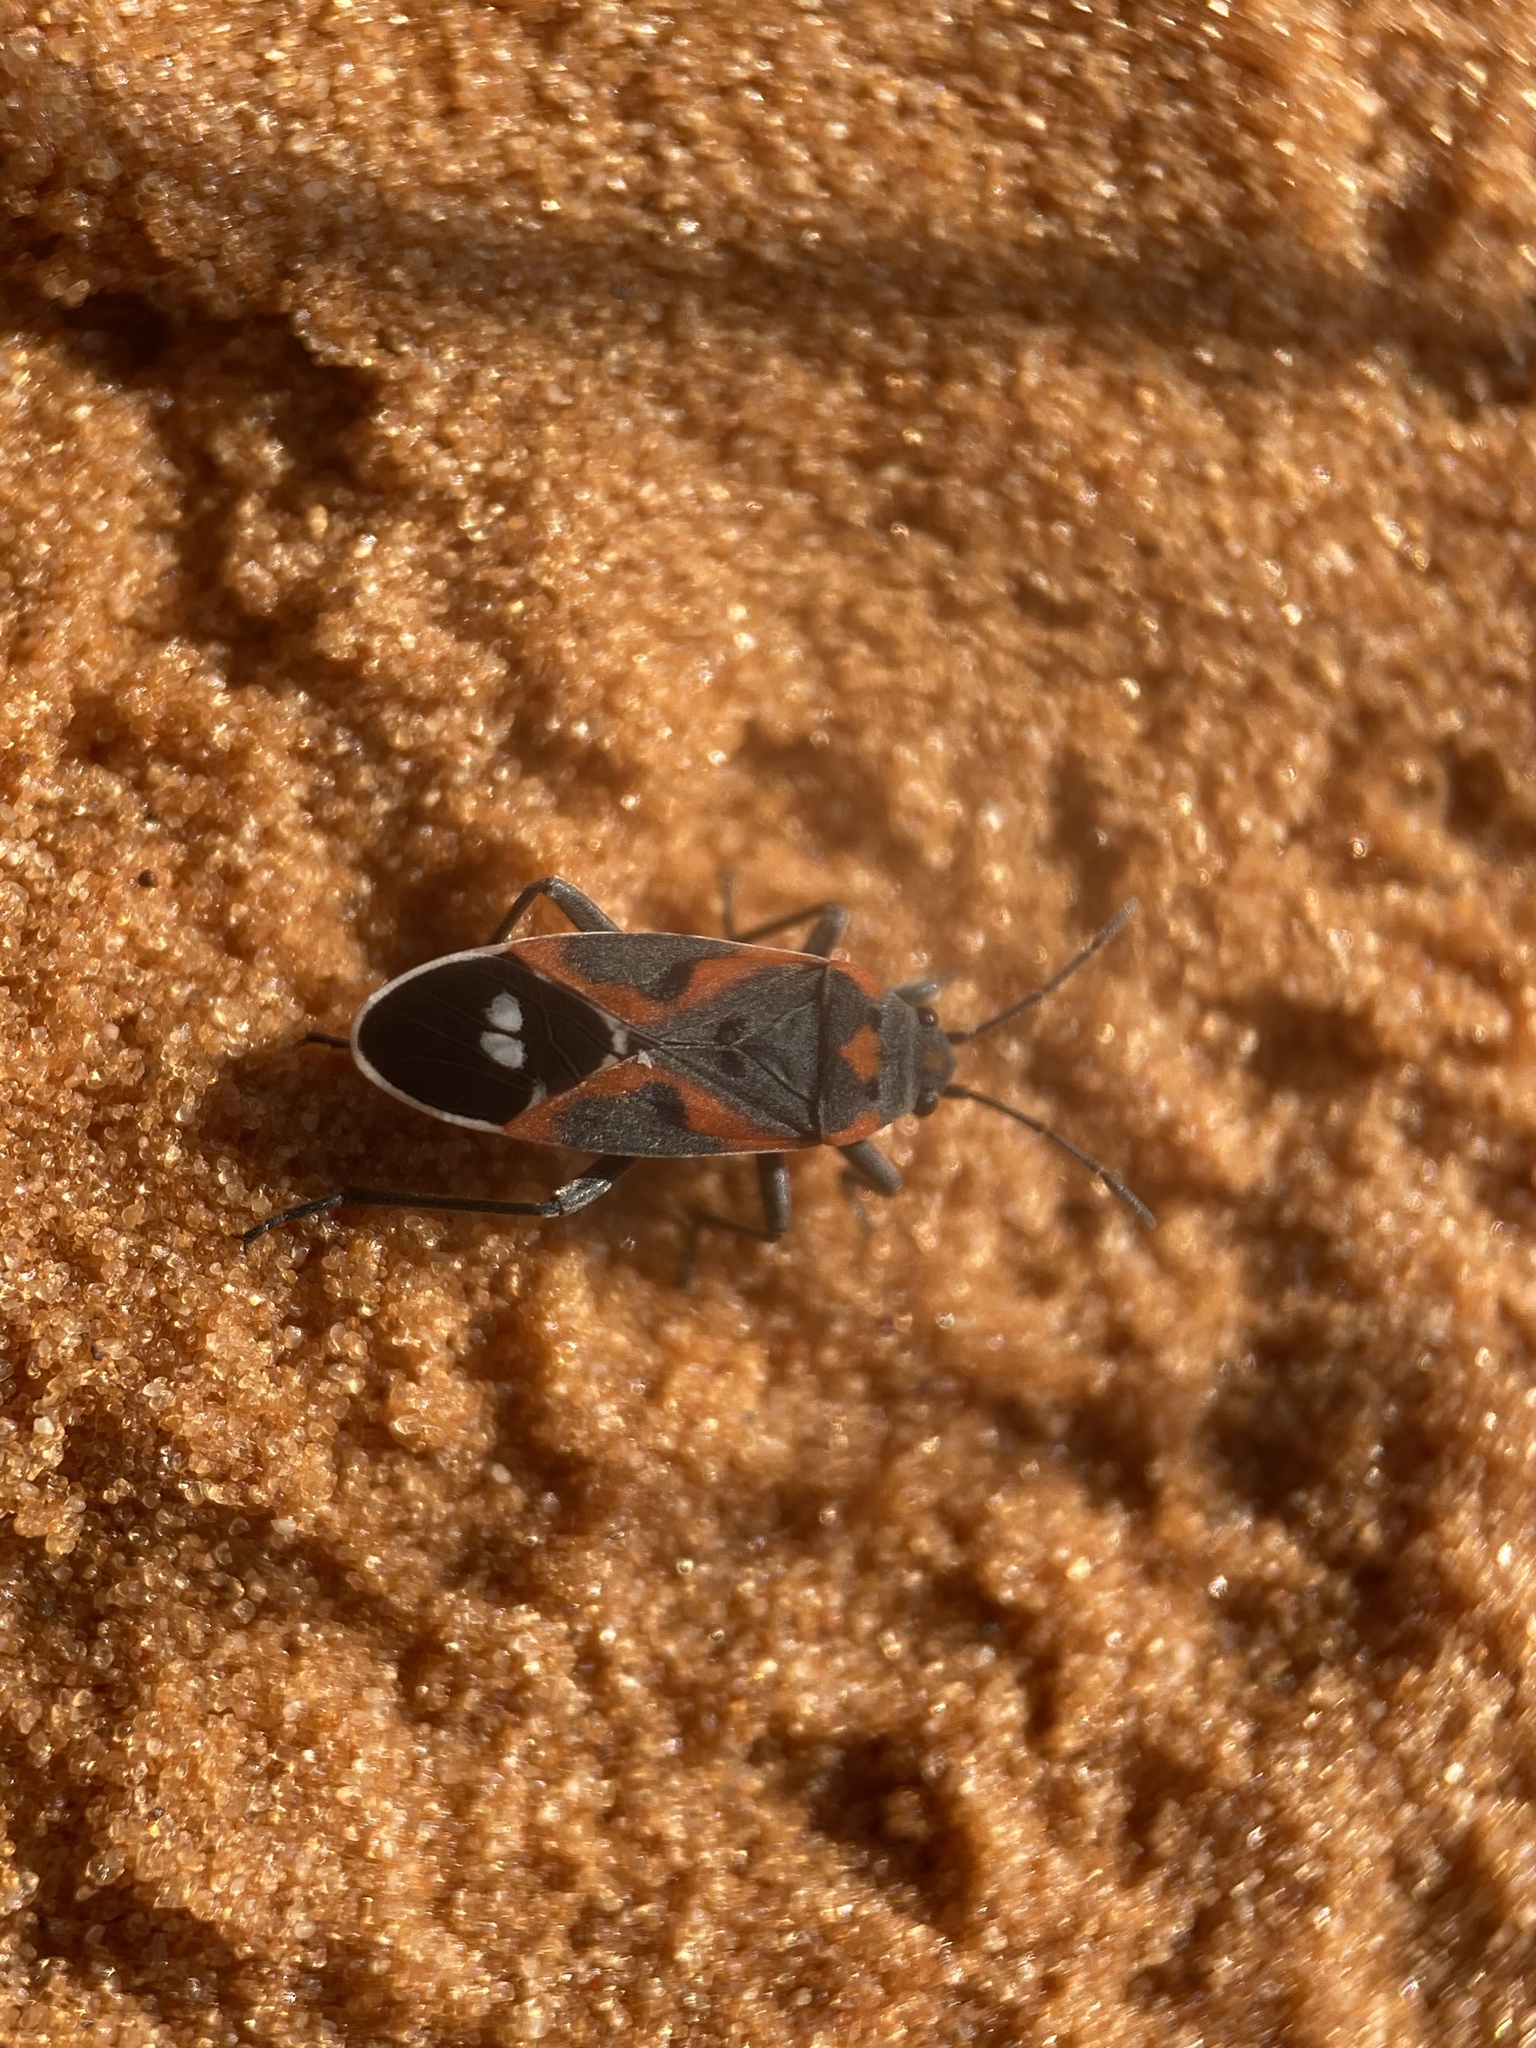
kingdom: Animalia
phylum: Arthropoda
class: Insecta
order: Hemiptera
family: Lygaeidae
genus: Lygaeus
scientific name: Lygaeus kalmii
